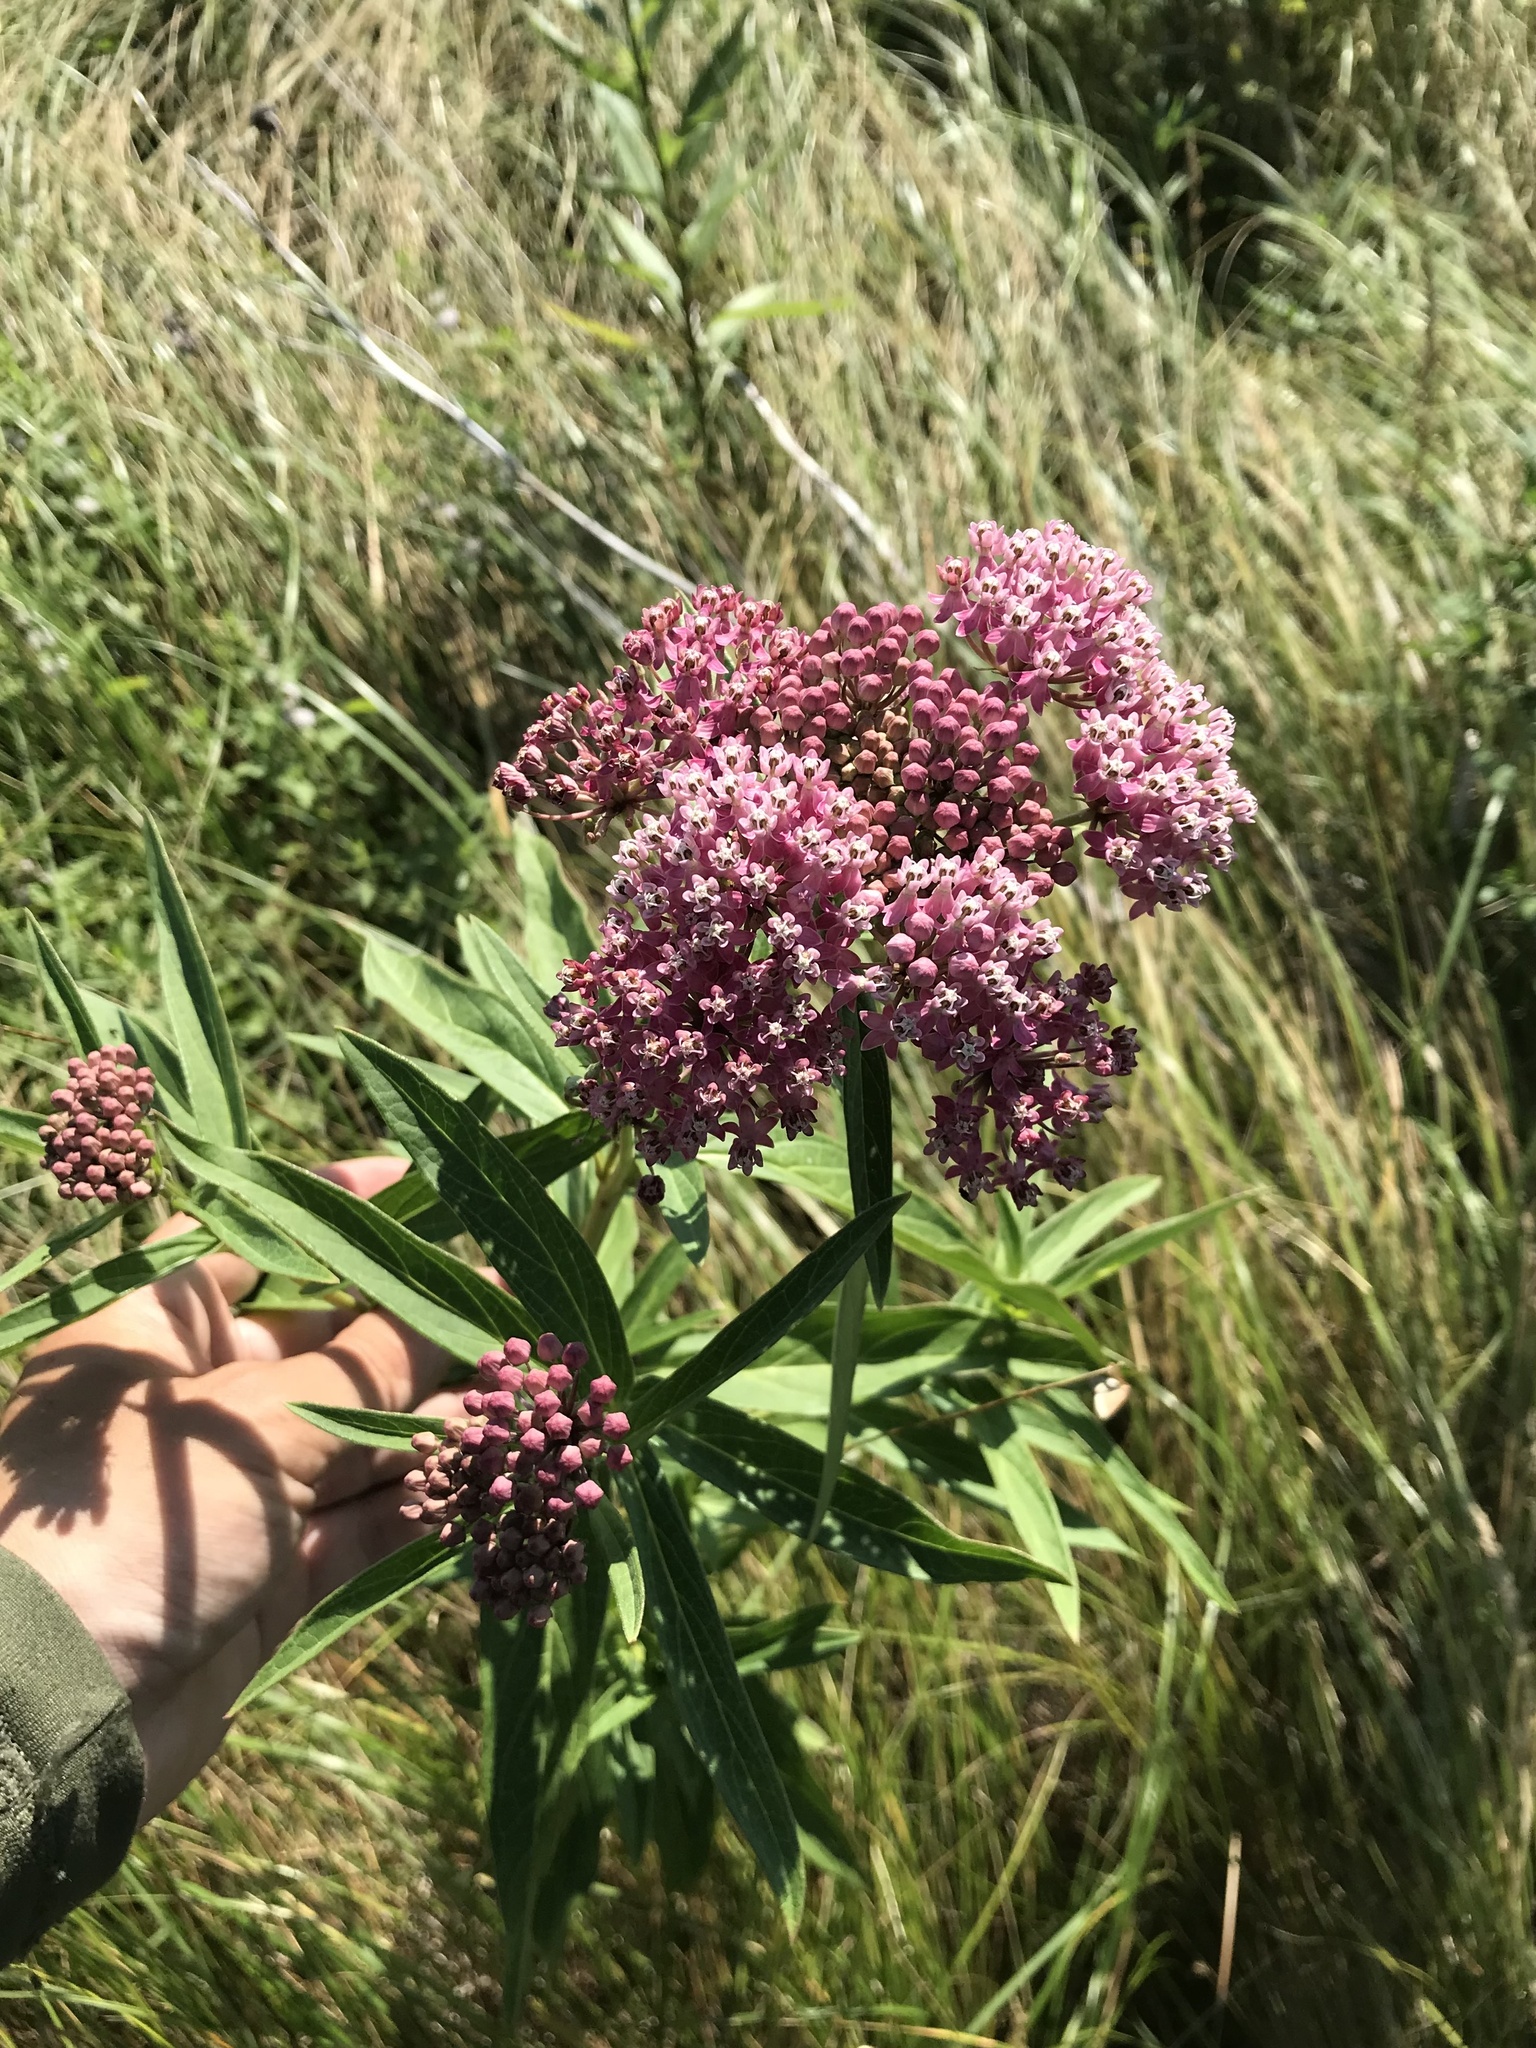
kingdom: Plantae
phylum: Tracheophyta
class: Magnoliopsida
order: Gentianales
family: Apocynaceae
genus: Asclepias
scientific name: Asclepias incarnata
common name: Swamp milkweed
